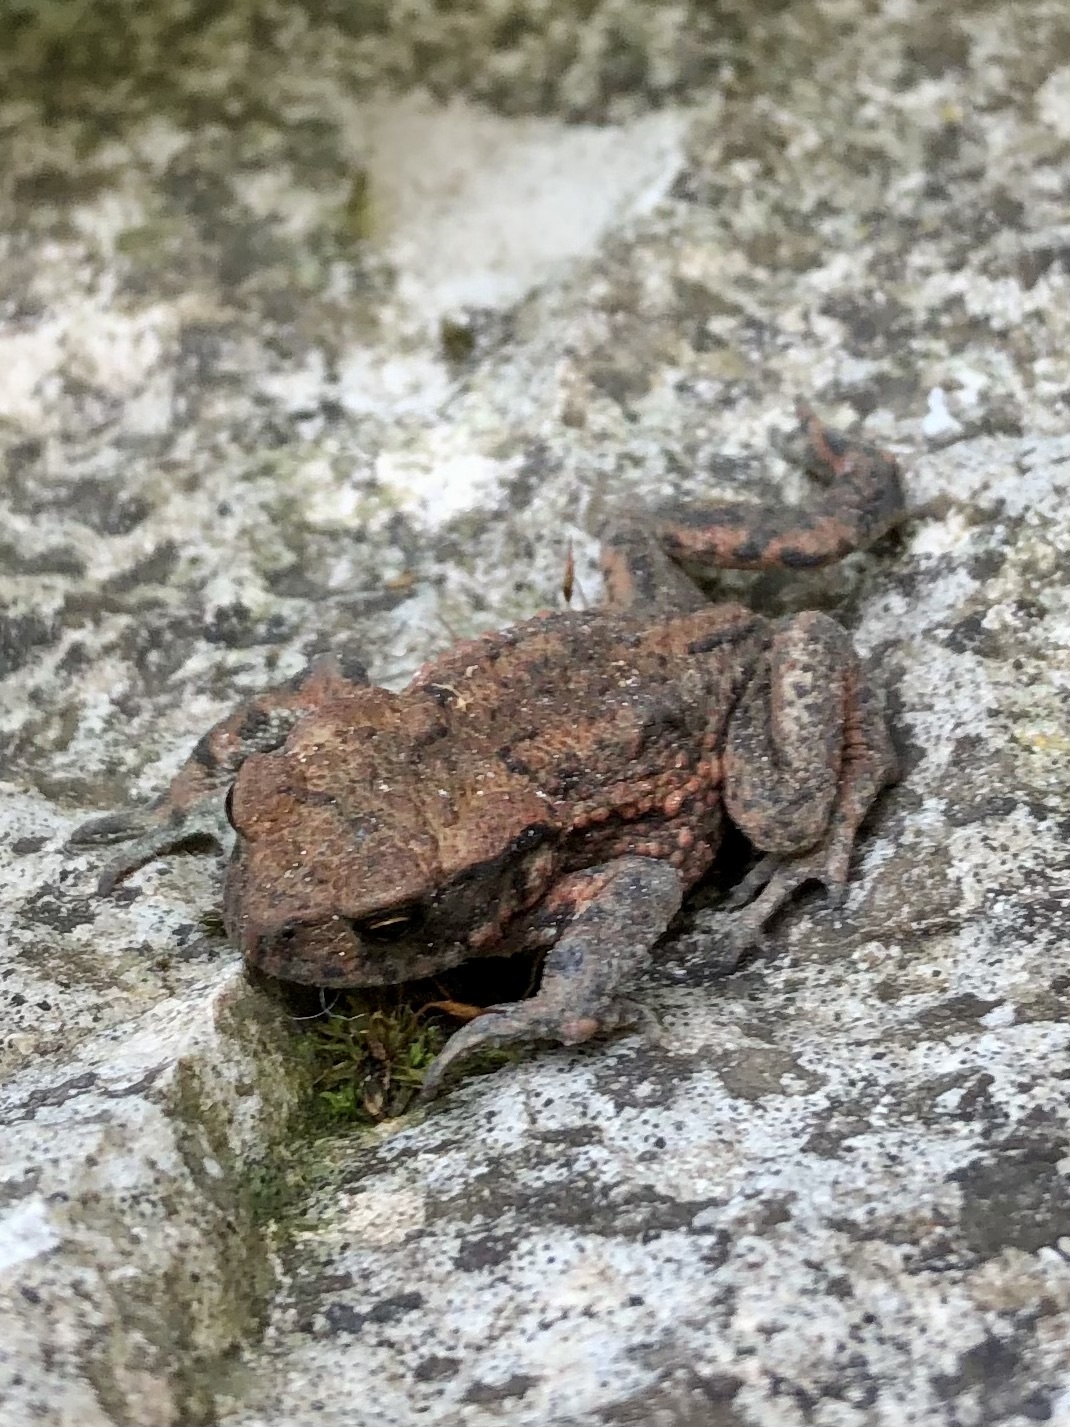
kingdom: Animalia
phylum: Chordata
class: Amphibia
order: Anura
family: Bufonidae
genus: Bufo
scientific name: Bufo bufo
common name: Common toad
